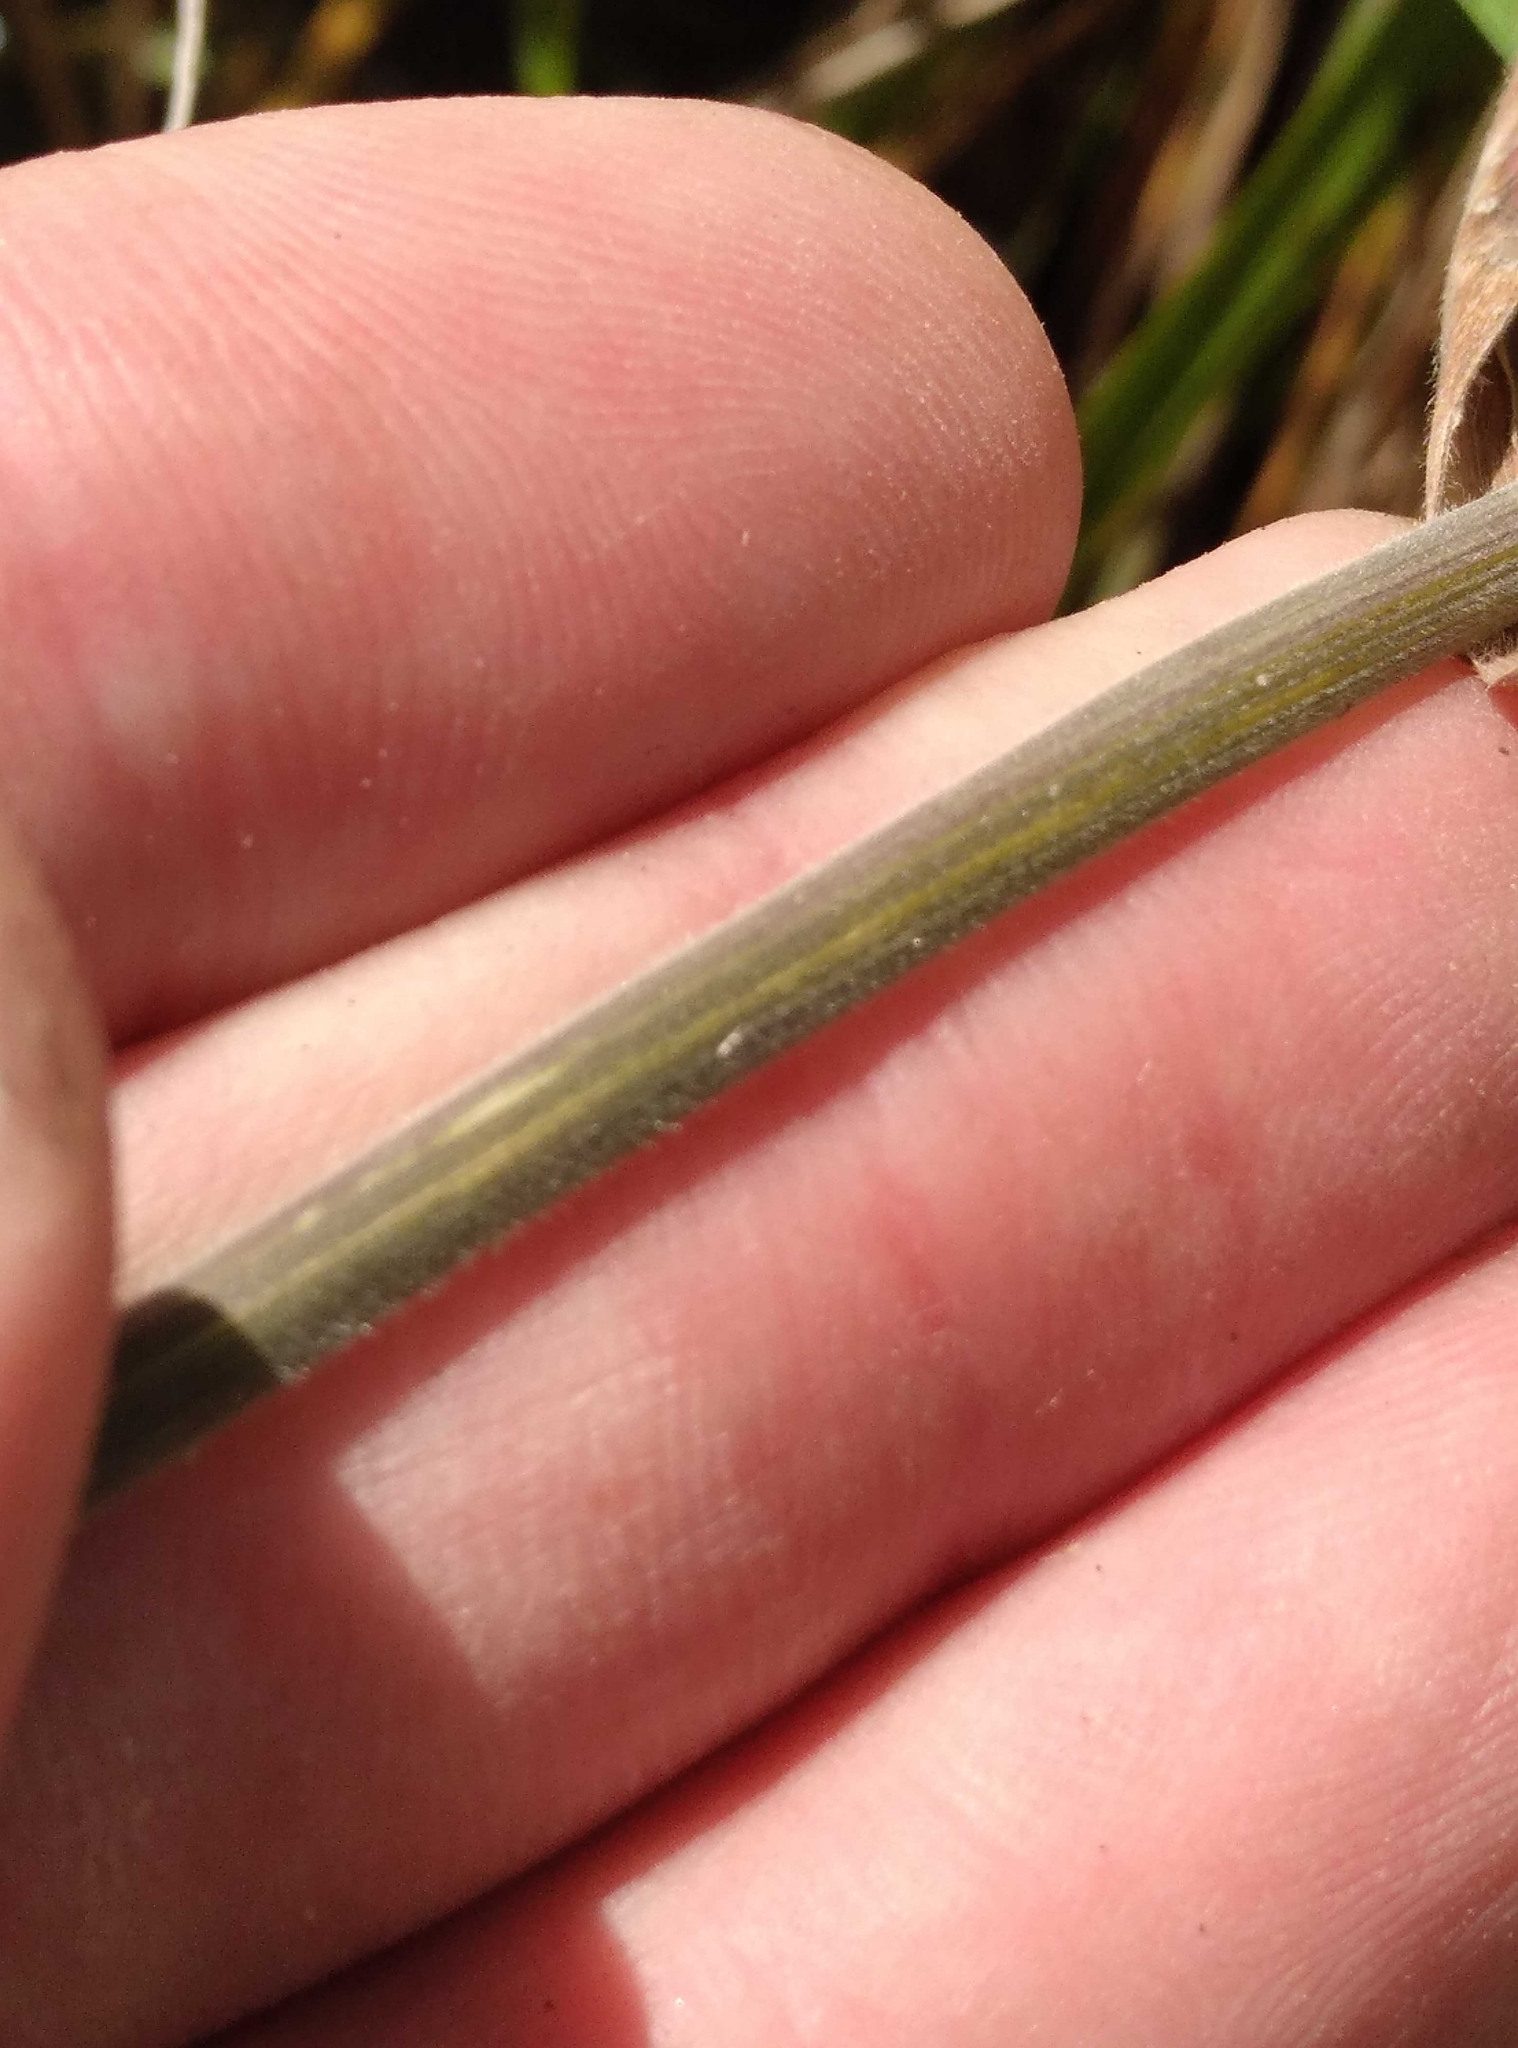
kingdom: Plantae
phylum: Tracheophyta
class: Liliopsida
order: Poales
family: Poaceae
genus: Holcus
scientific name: Holcus lanatus
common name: Yorkshire-fog
